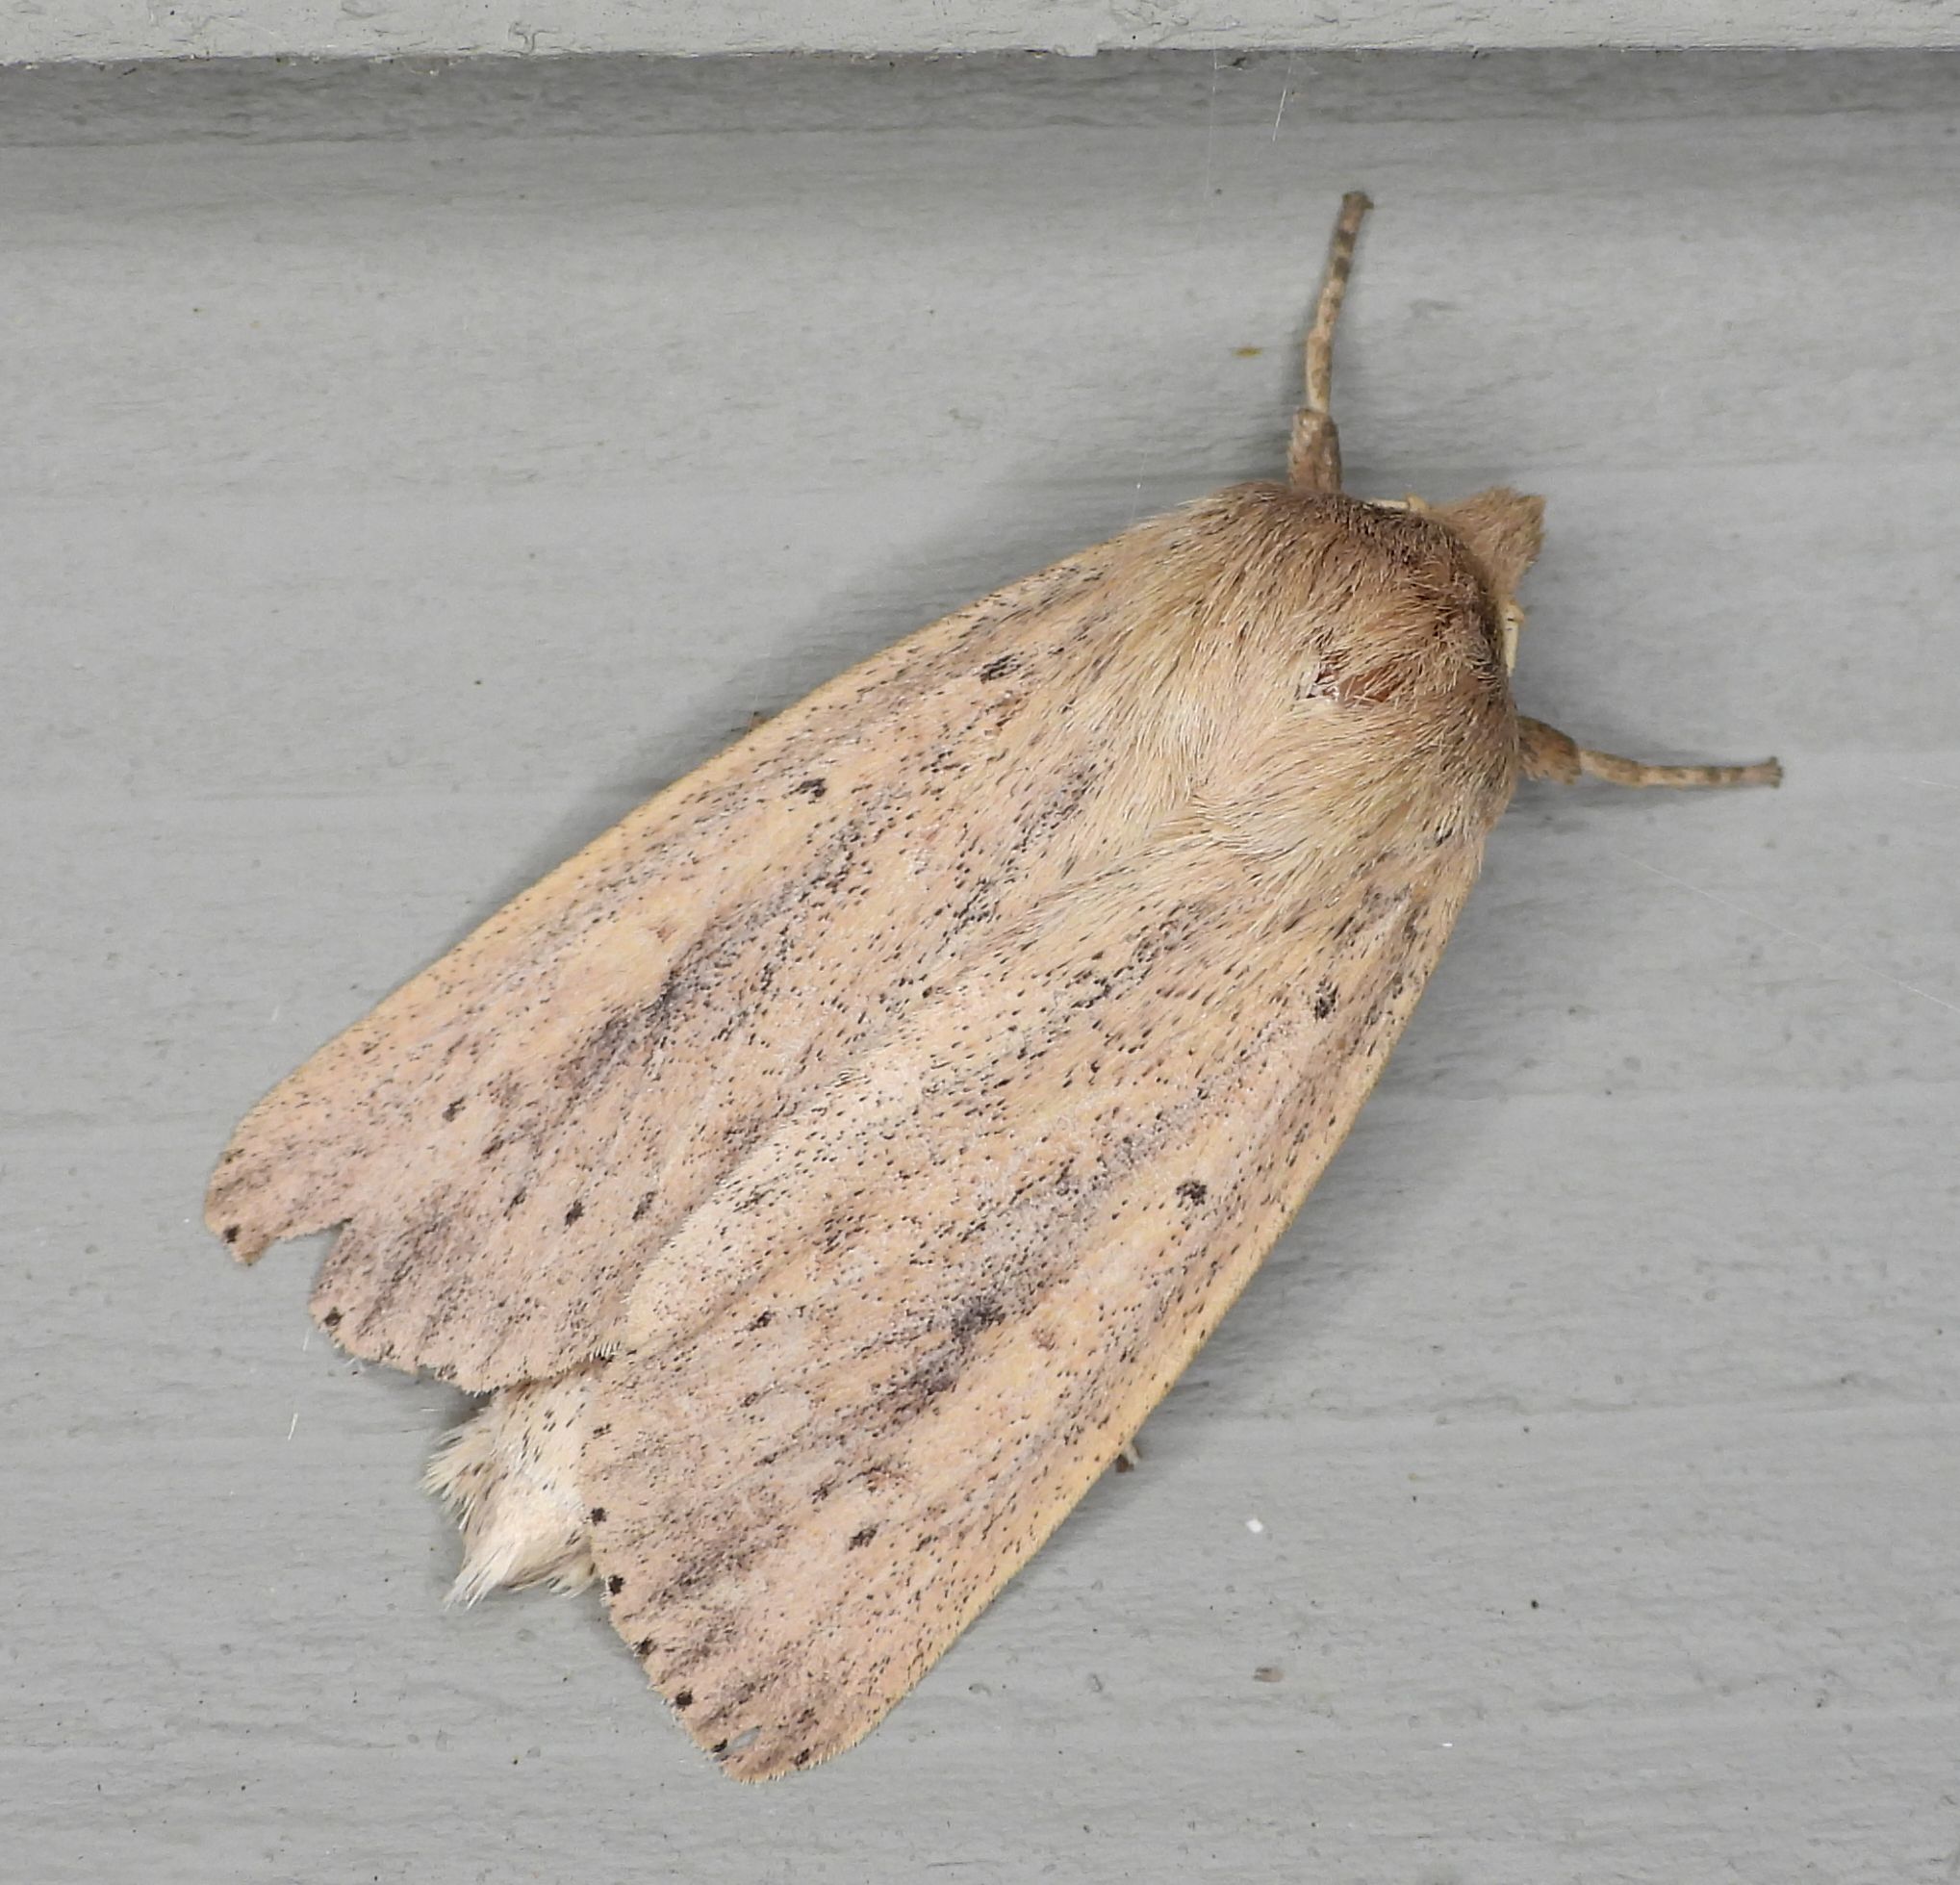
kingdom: Animalia
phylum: Arthropoda
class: Insecta
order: Lepidoptera
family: Noctuidae
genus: Globia
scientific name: Globia oblonga
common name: Oblong sedge borer moth
